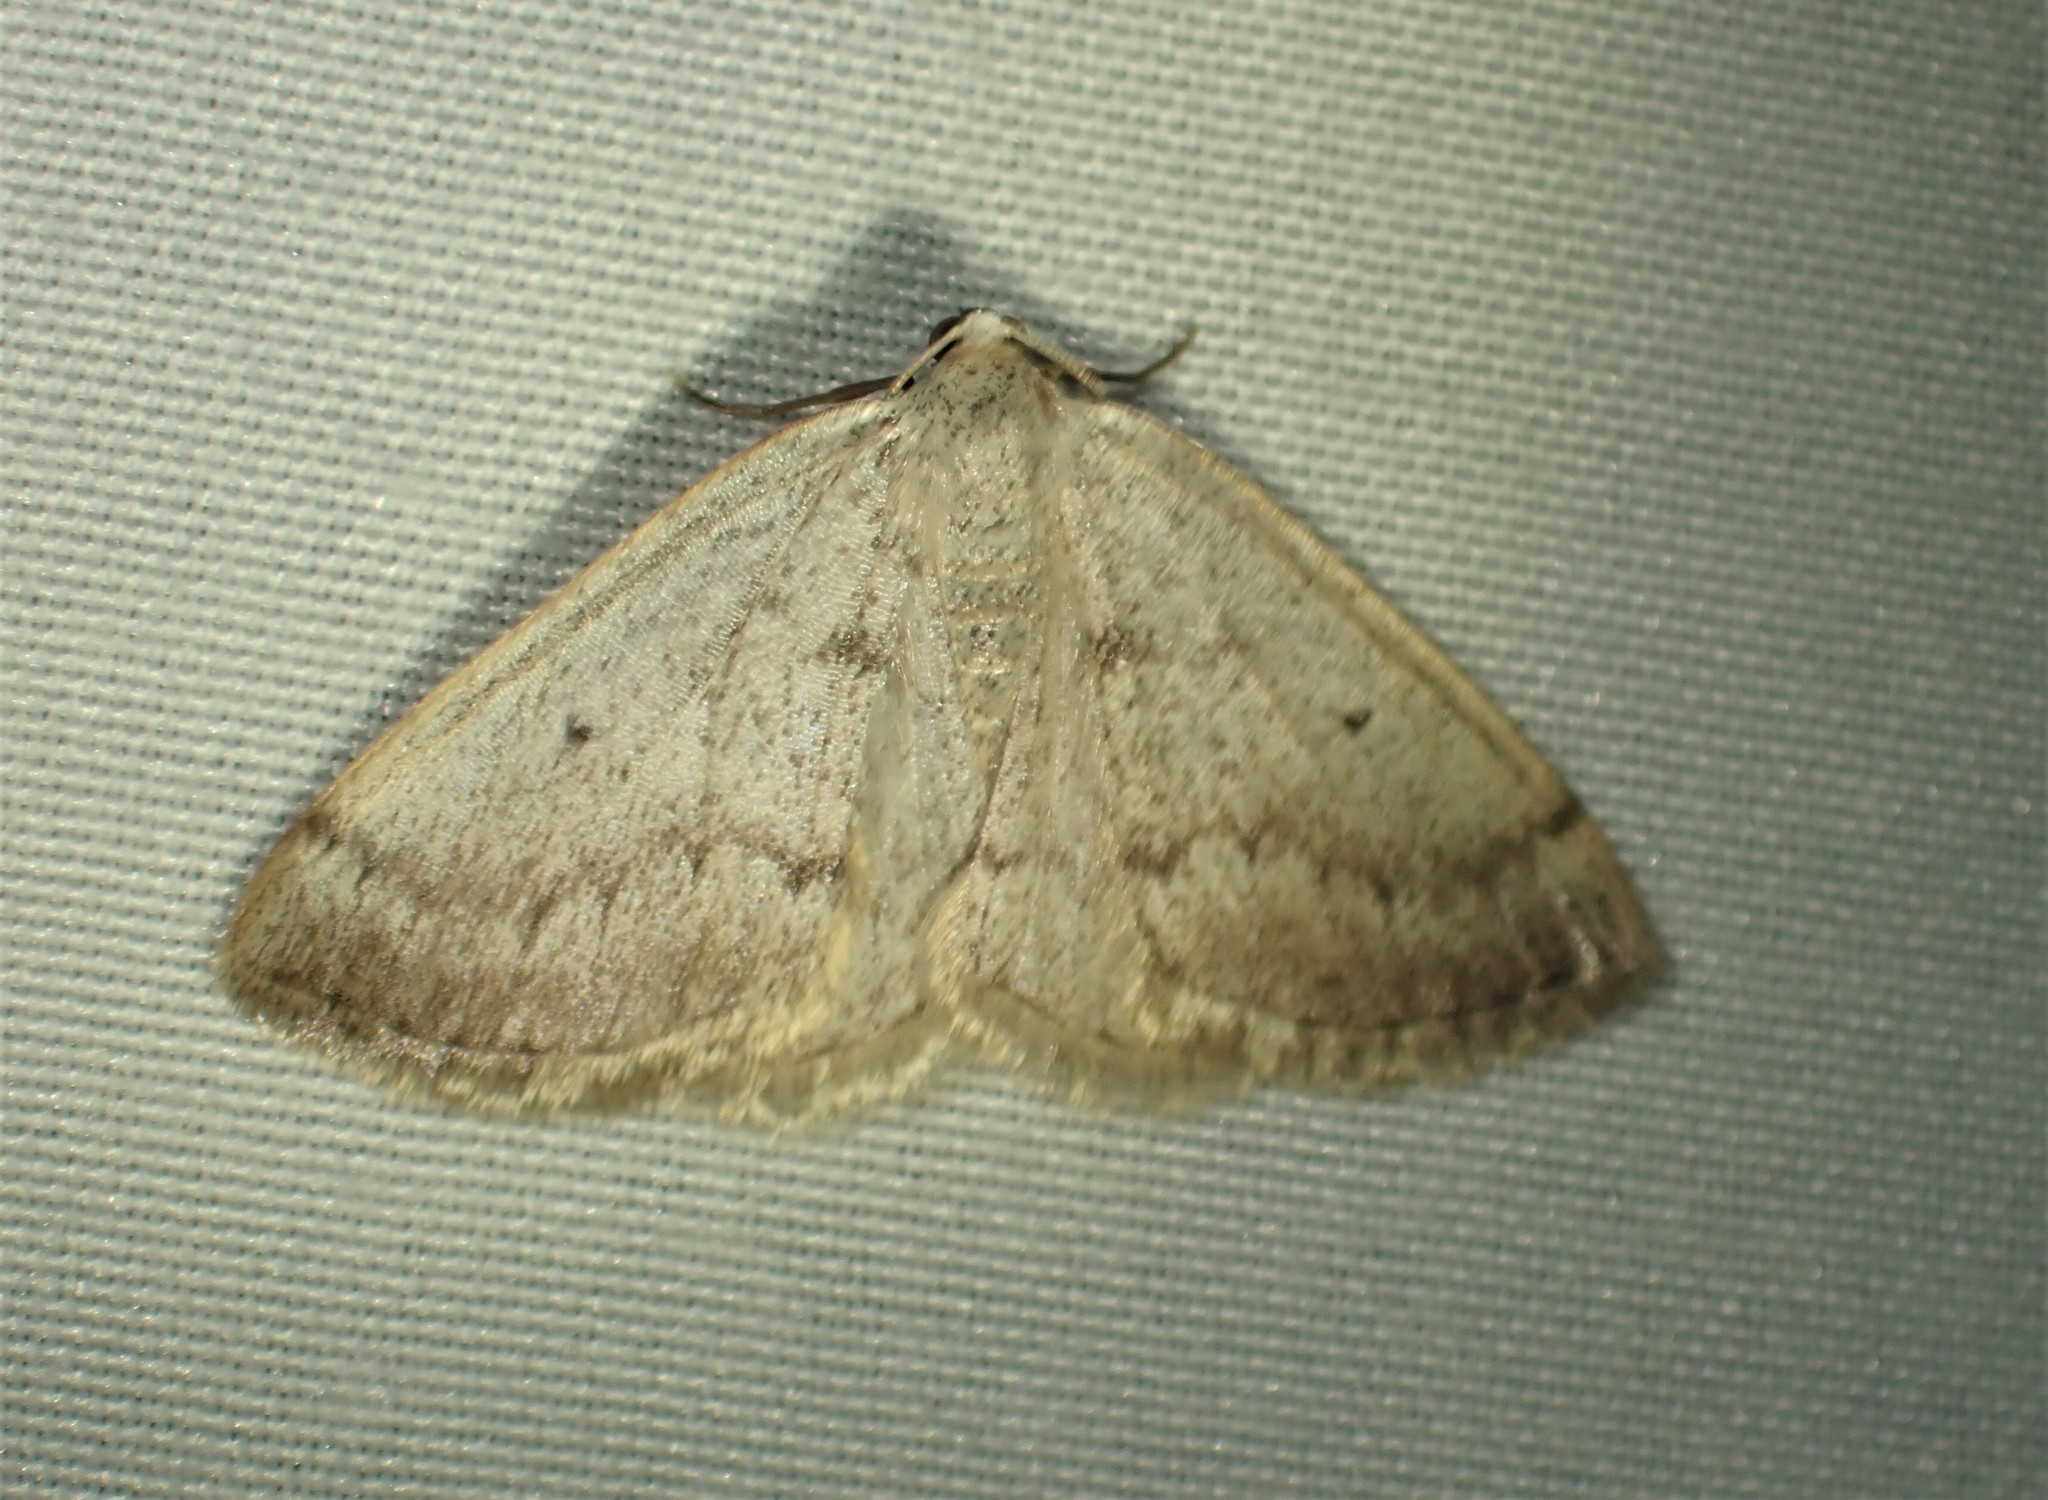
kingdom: Animalia
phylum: Arthropoda
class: Insecta
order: Lepidoptera
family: Geometridae
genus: Lomographa
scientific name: Lomographa glomeraria
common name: Gray spring moth
